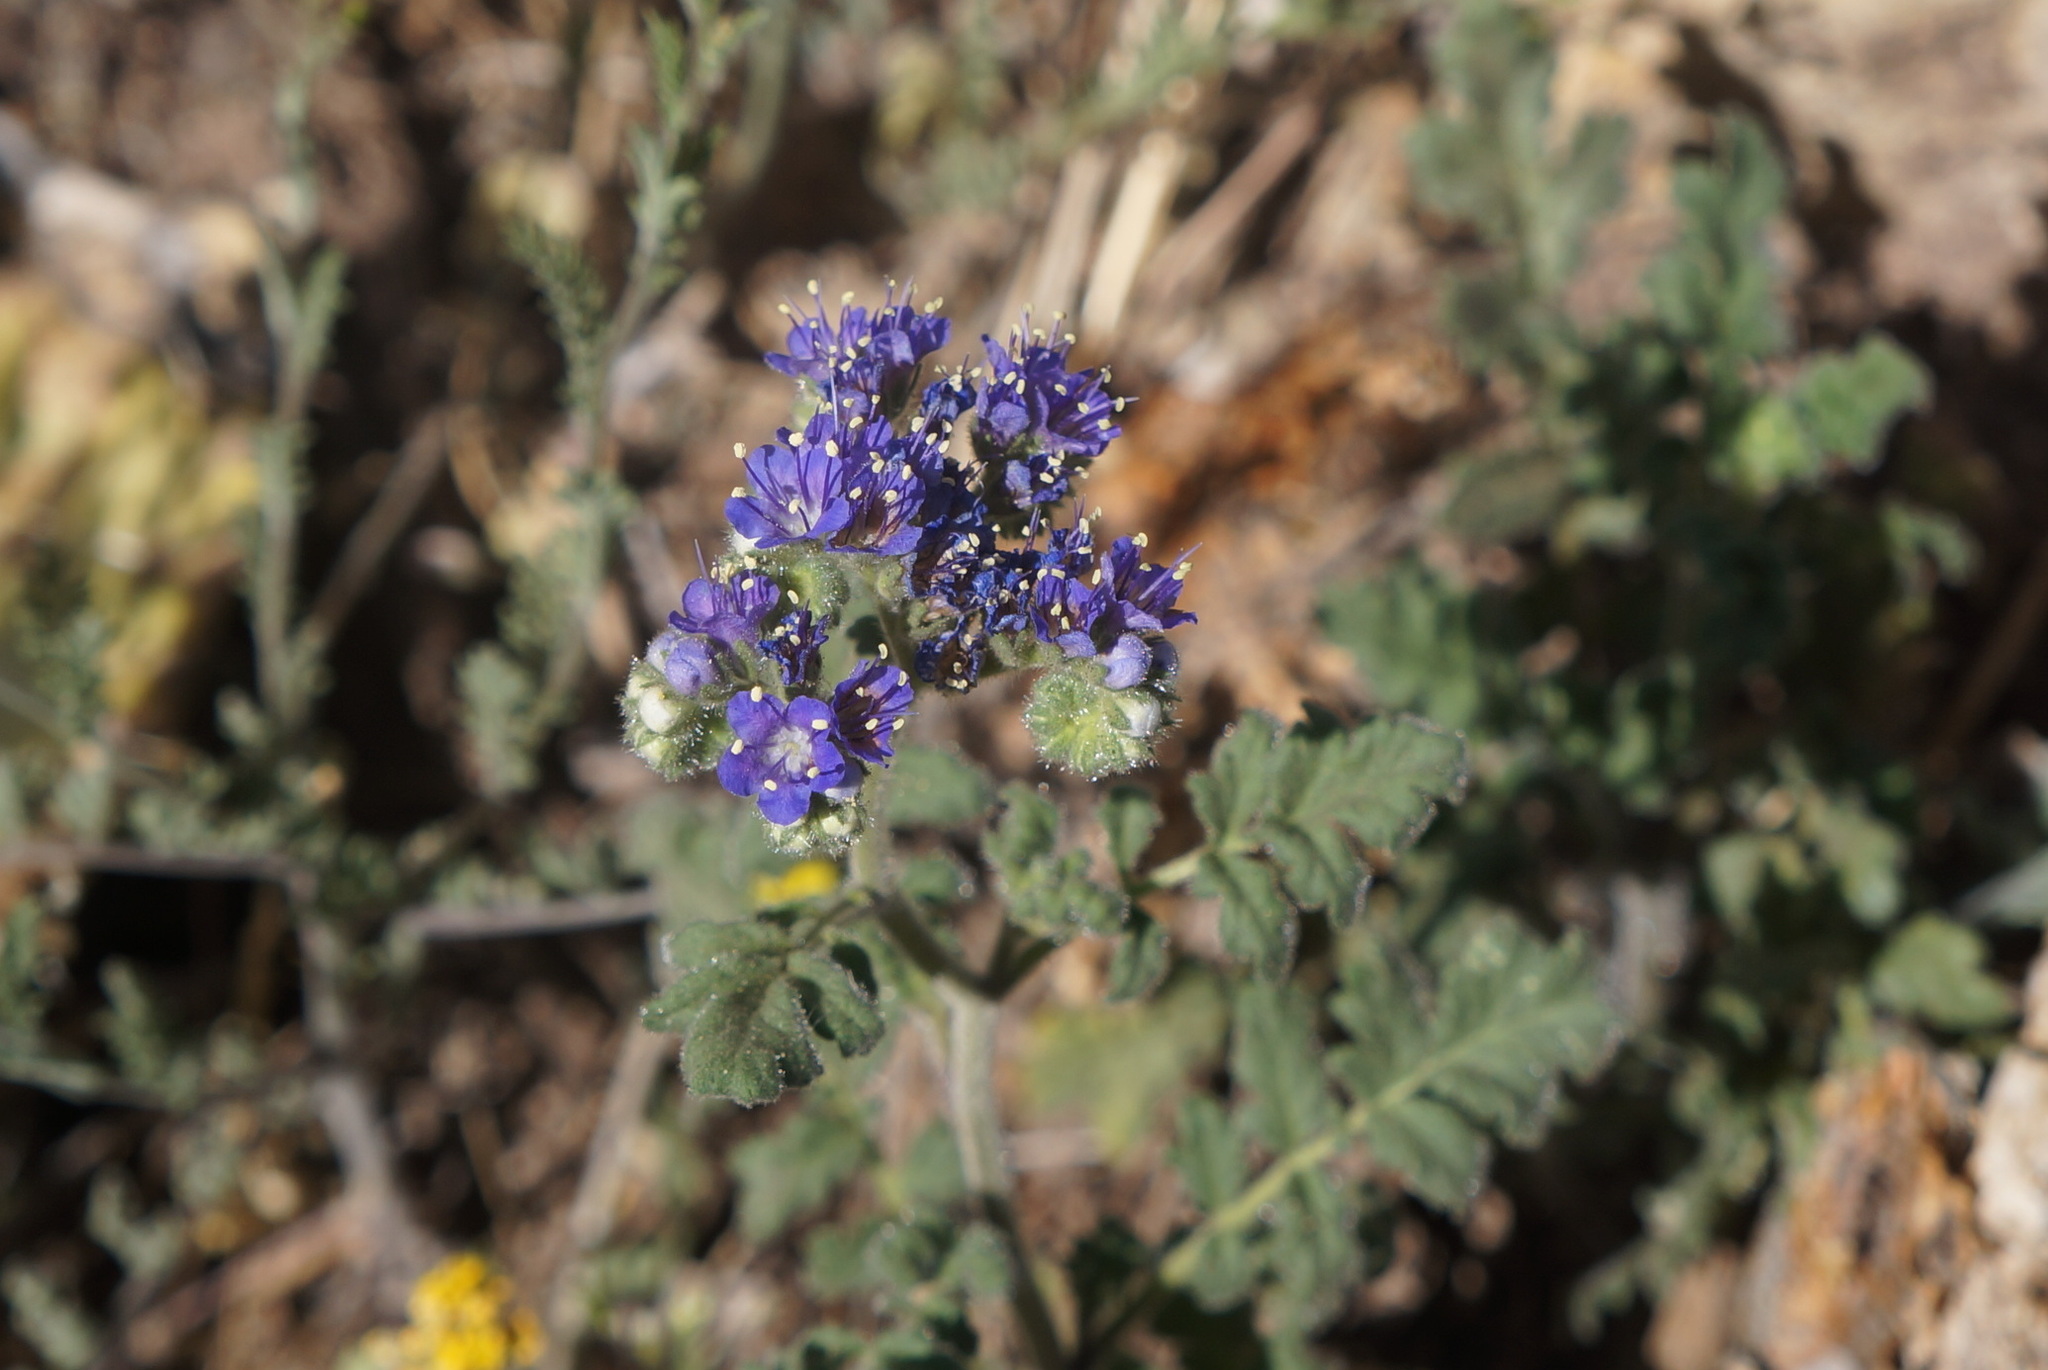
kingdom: Plantae
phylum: Tracheophyta
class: Magnoliopsida
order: Boraginales
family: Hydrophyllaceae
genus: Phacelia
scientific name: Phacelia popei
